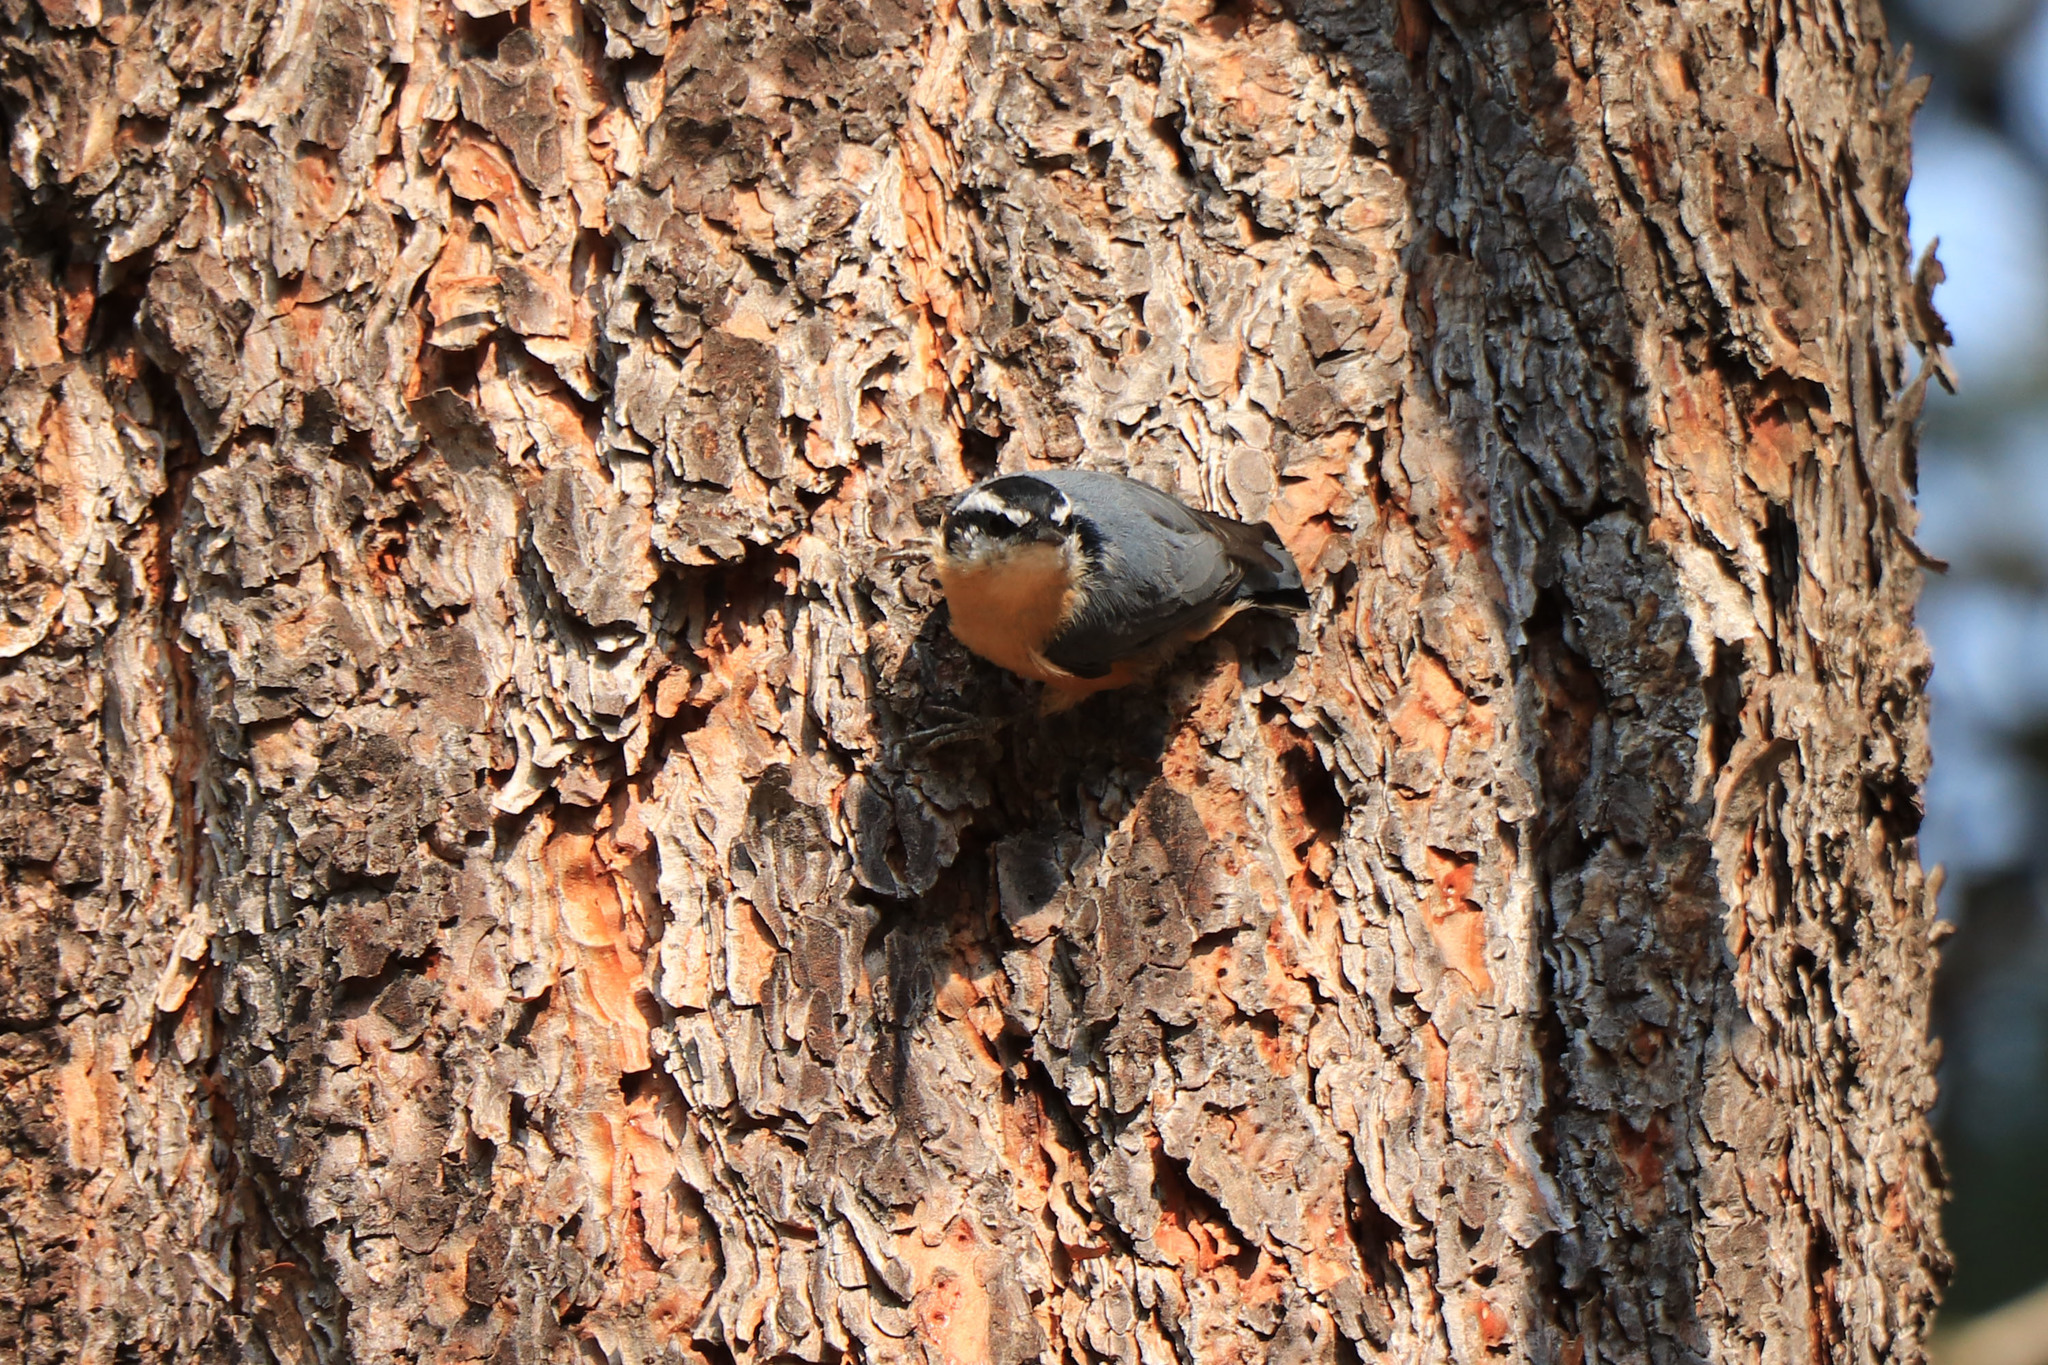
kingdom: Animalia
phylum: Chordata
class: Aves
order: Passeriformes
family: Sittidae
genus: Sitta
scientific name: Sitta canadensis
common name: Red-breasted nuthatch
